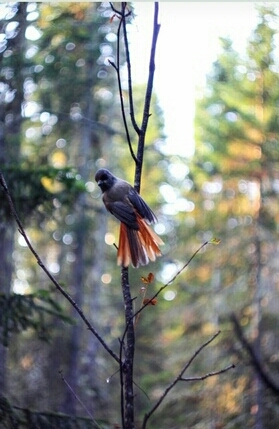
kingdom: Animalia
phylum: Chordata
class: Aves
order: Passeriformes
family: Corvidae
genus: Perisoreus
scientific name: Perisoreus infaustus
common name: Siberian jay
